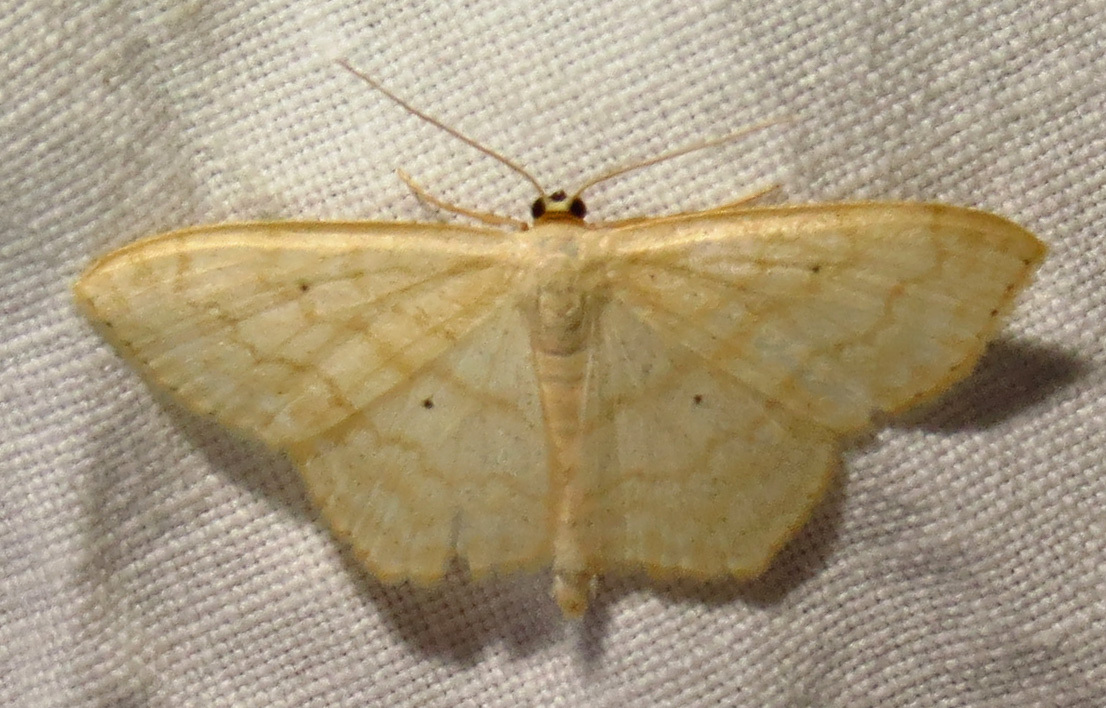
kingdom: Animalia
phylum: Arthropoda
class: Insecta
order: Lepidoptera
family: Geometridae
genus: Scopula
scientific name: Scopula limboundata
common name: Large lace border
